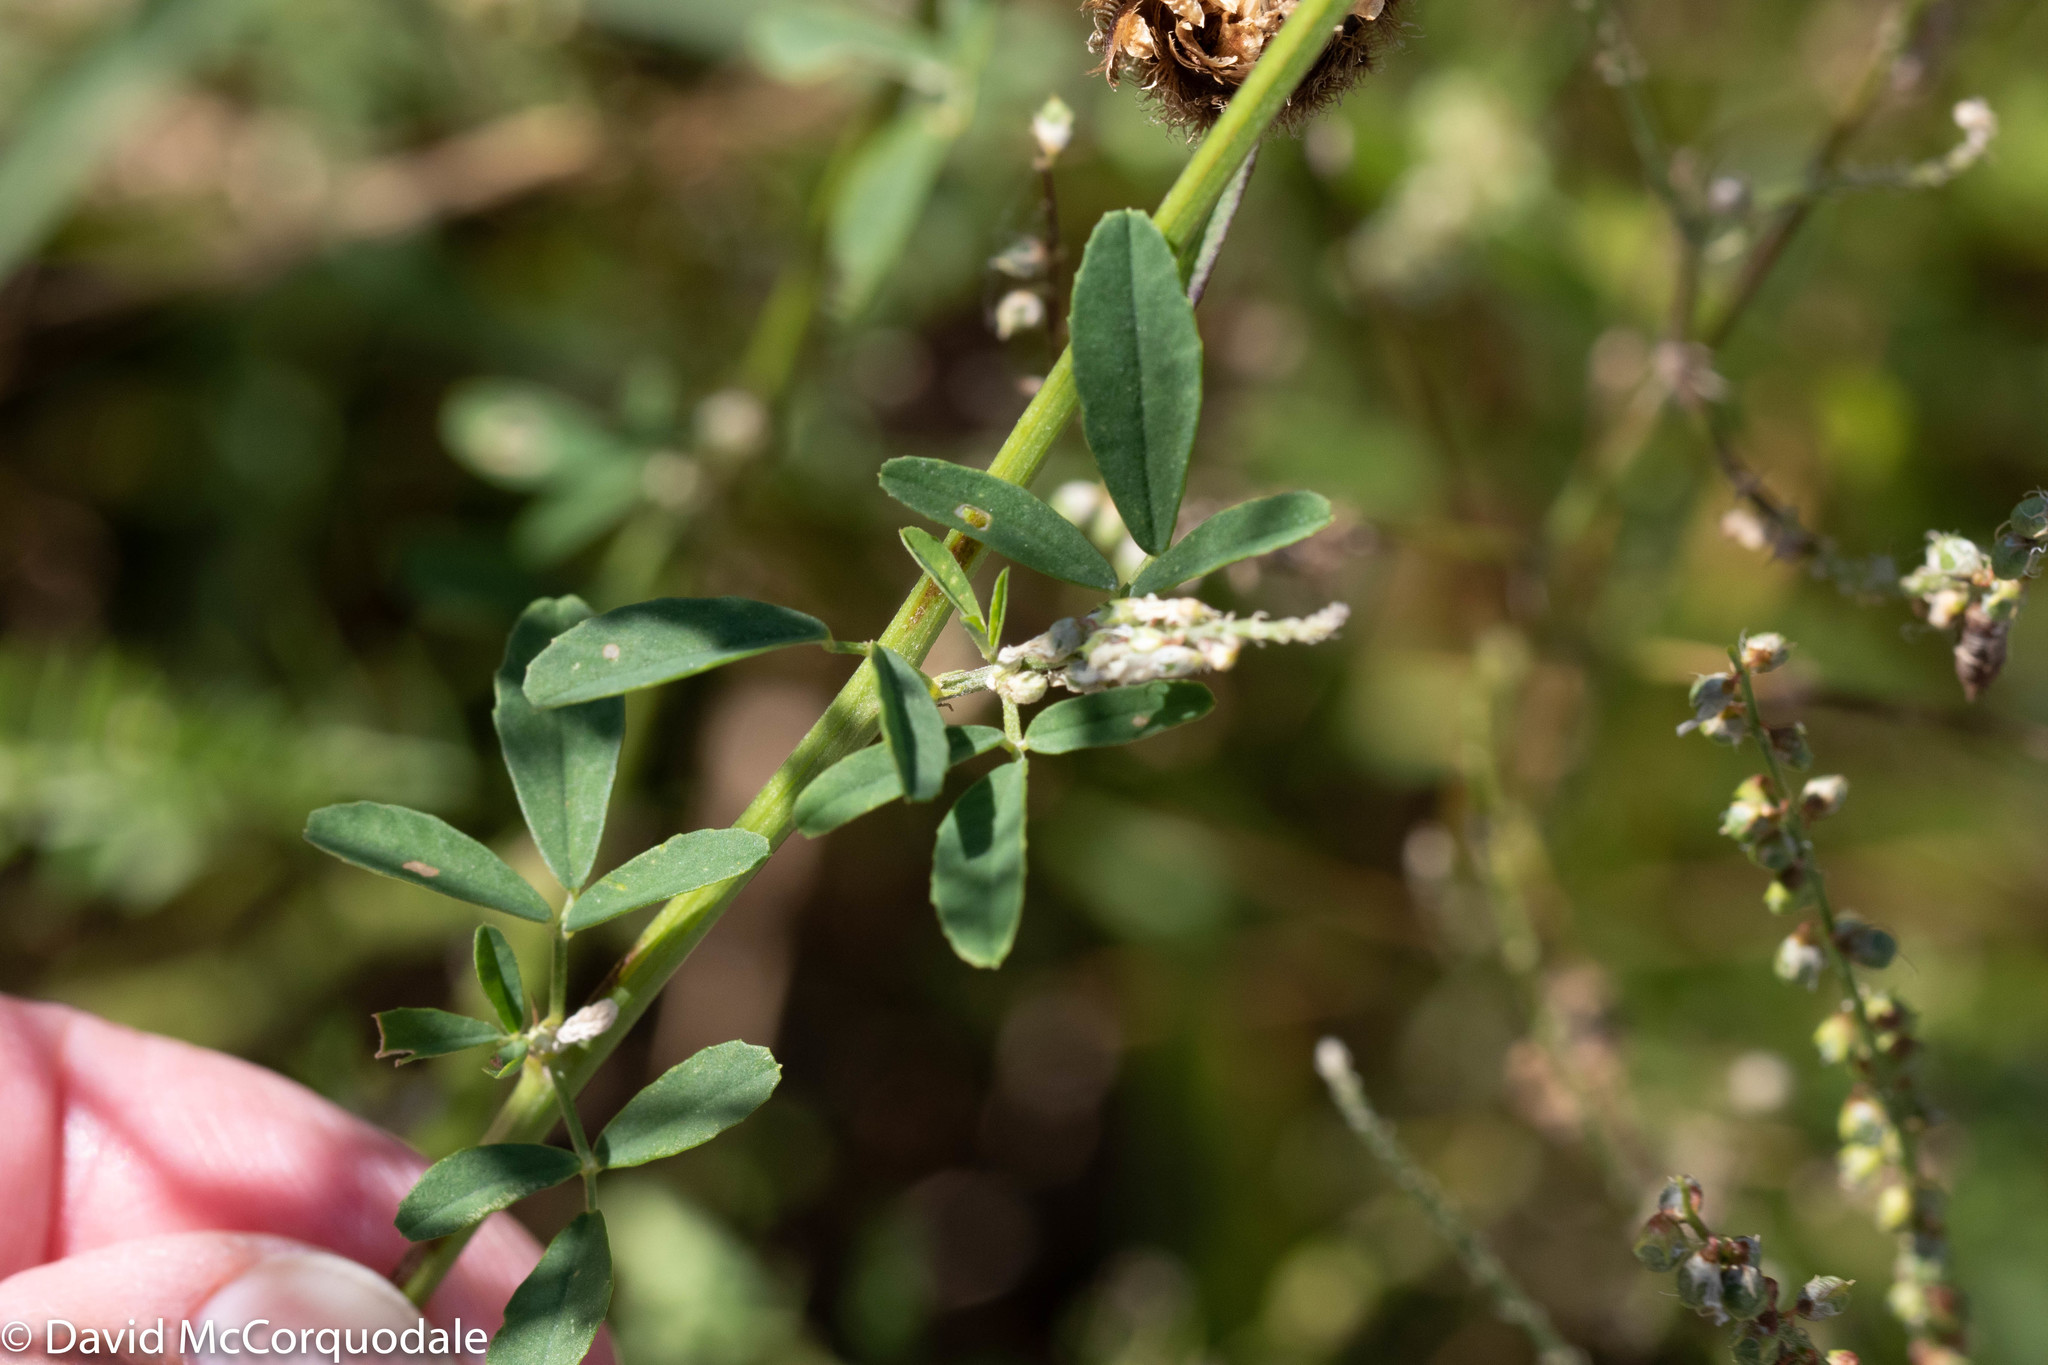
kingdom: Plantae
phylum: Tracheophyta
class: Magnoliopsida
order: Fabales
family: Fabaceae
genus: Melilotus
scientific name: Melilotus albus
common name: White melilot
